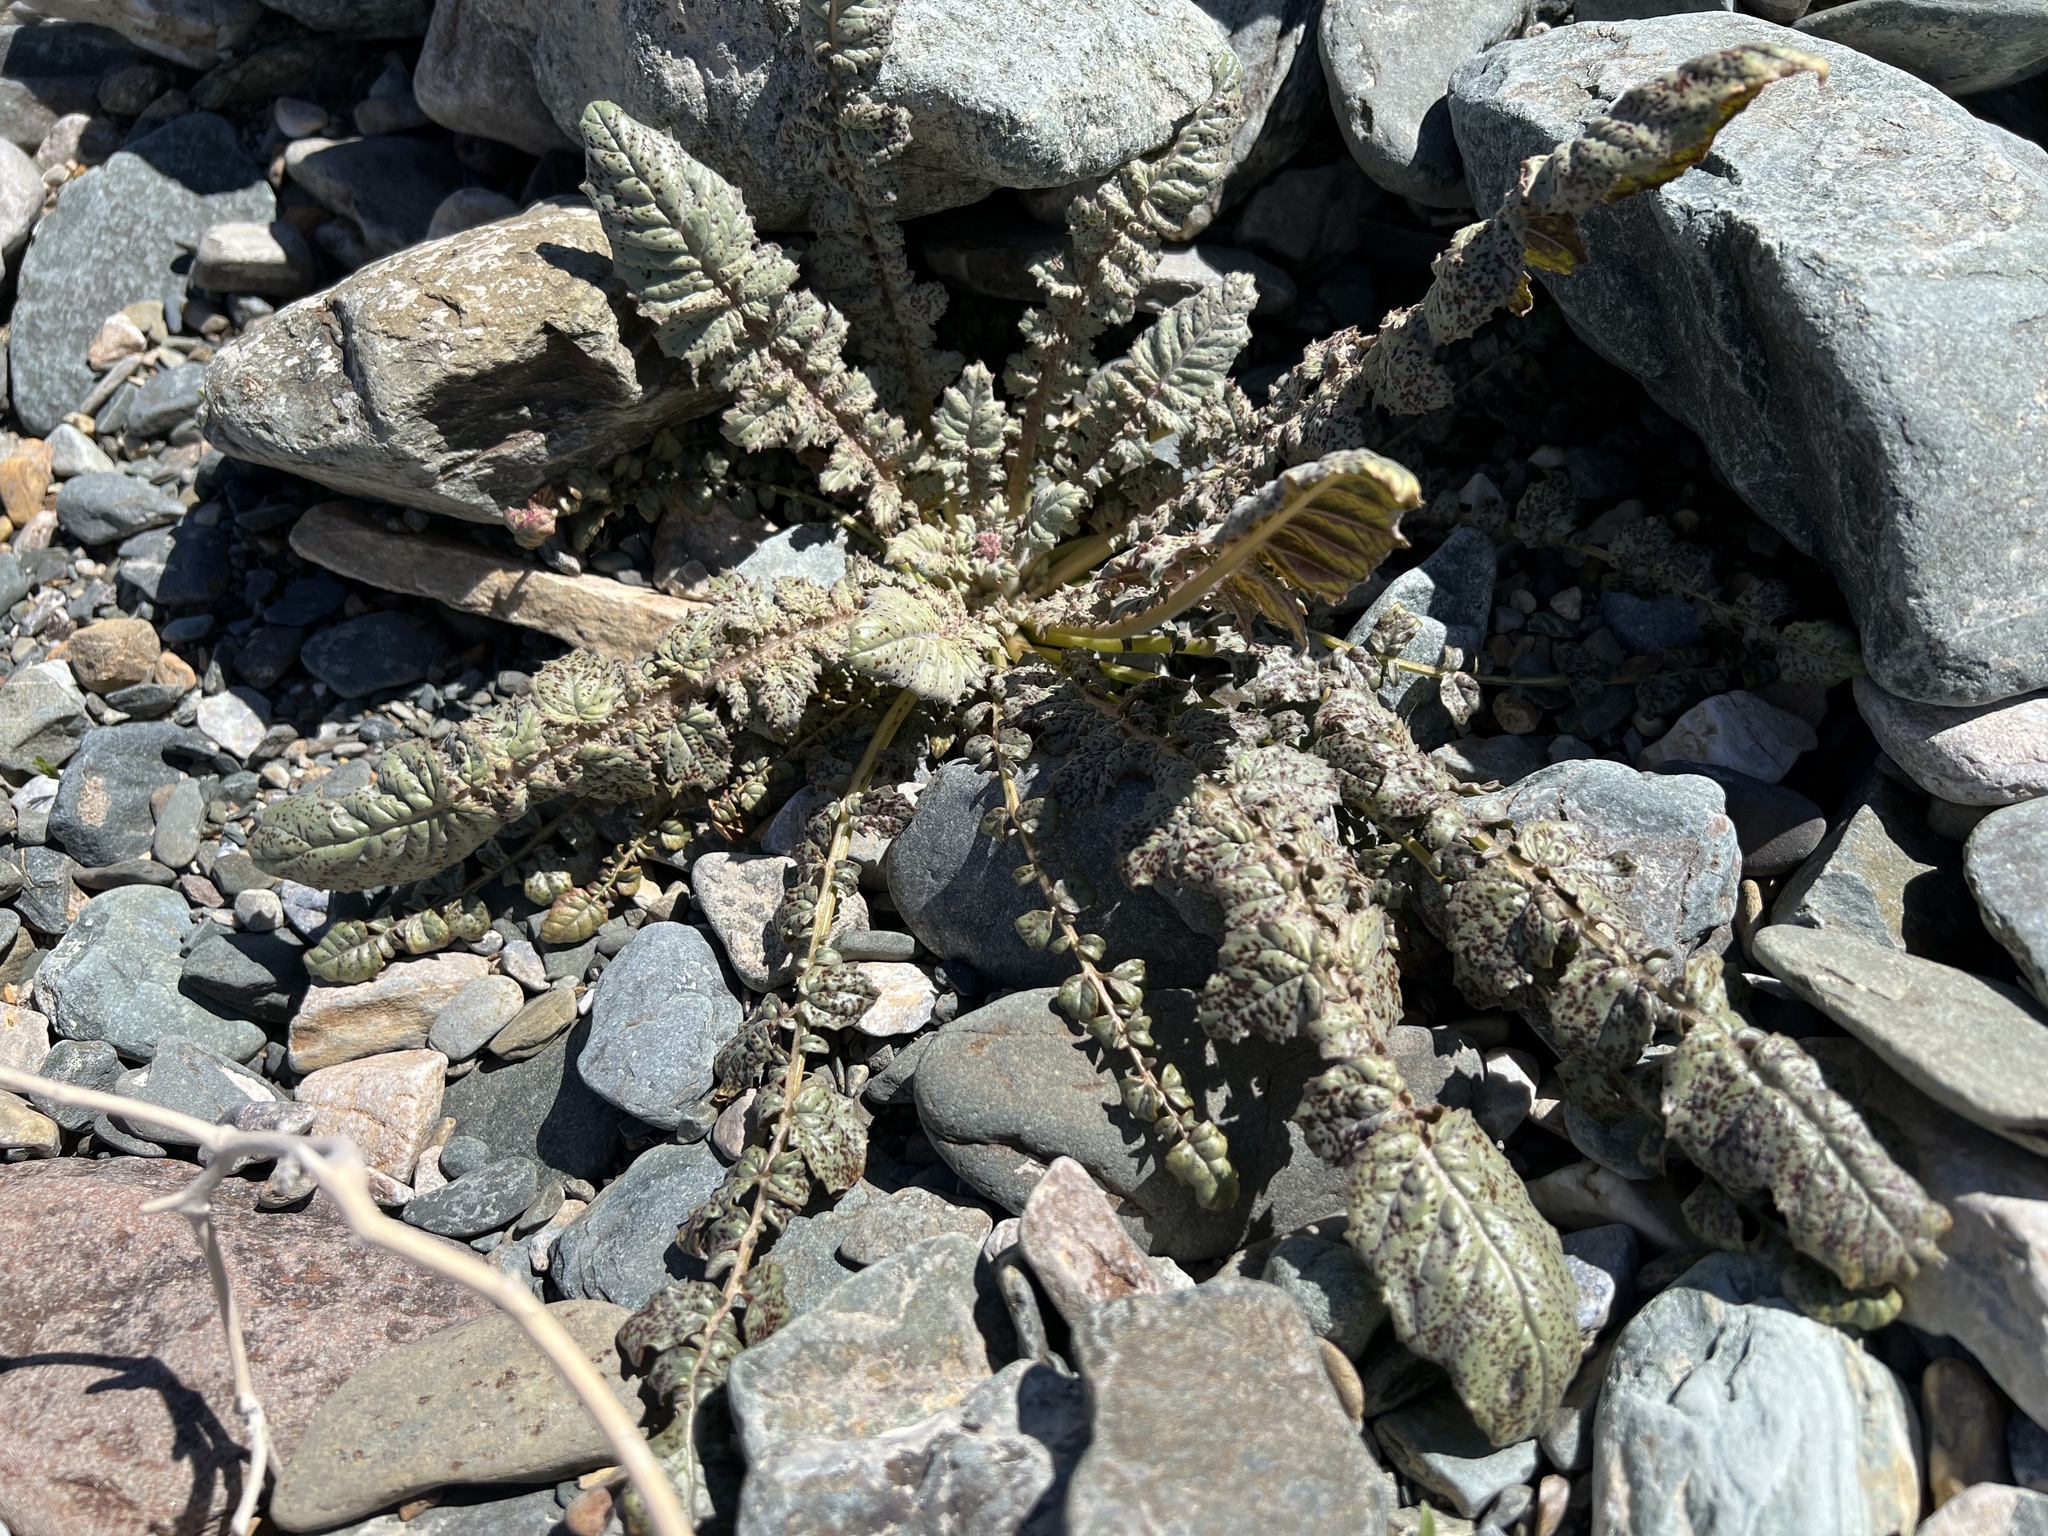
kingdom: Plantae
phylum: Tracheophyta
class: Magnoliopsida
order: Myrtales
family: Onagraceae
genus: Chylismia
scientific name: Chylismia walkeri
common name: Walker's suncup
